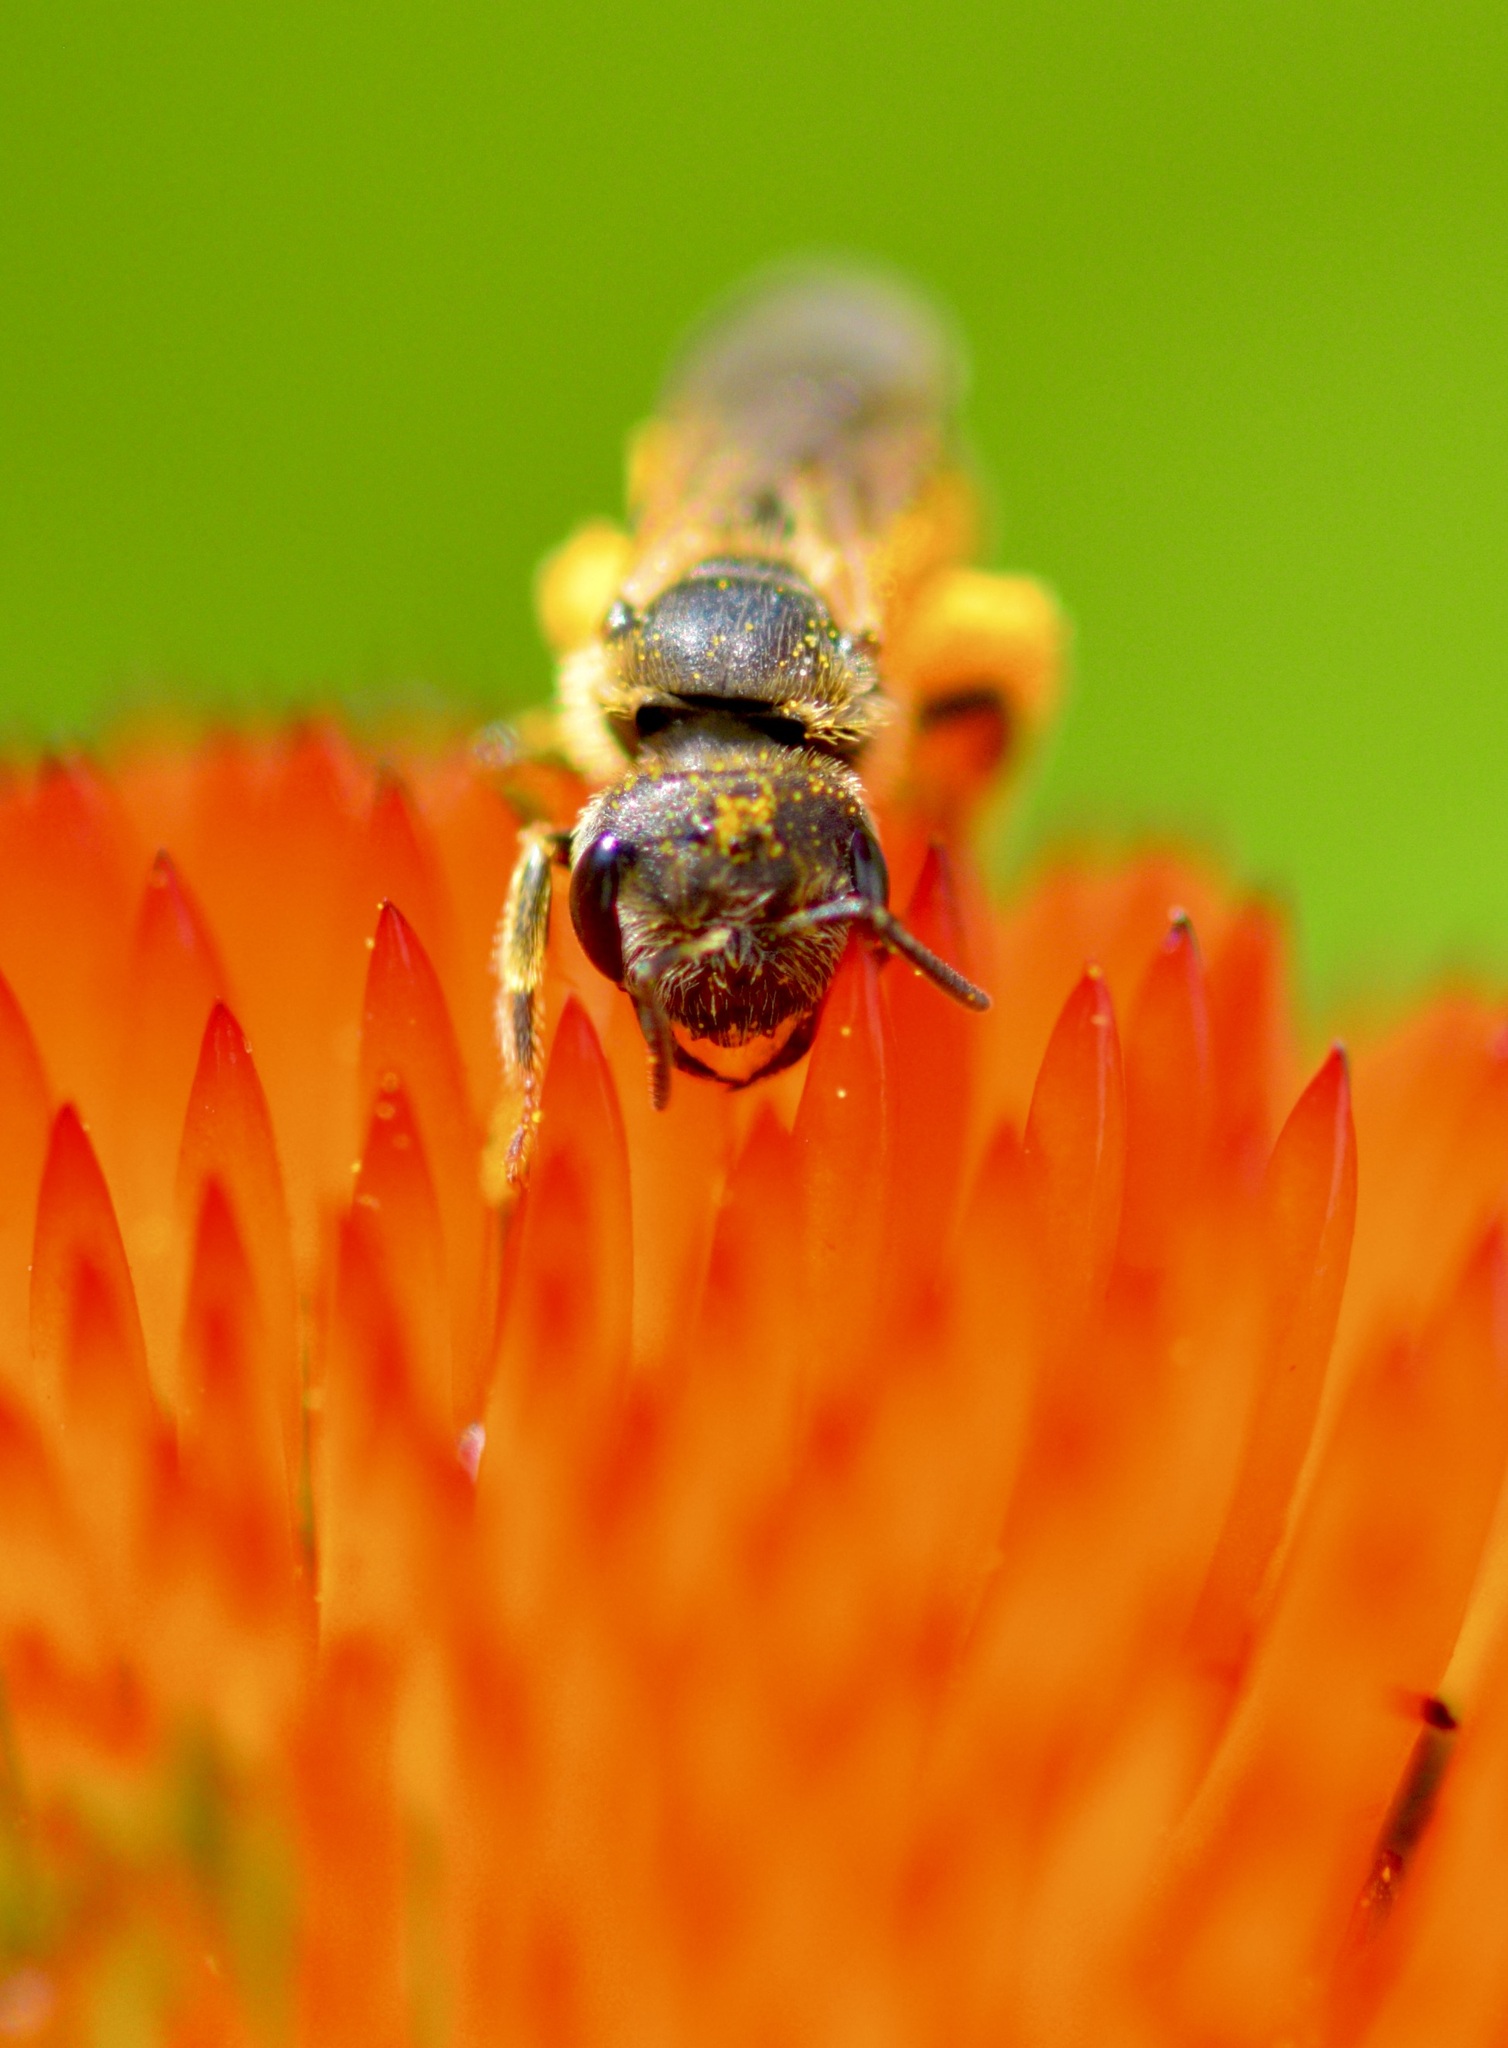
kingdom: Animalia
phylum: Arthropoda
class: Insecta
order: Hymenoptera
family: Halictidae
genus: Halictus
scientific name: Halictus ligatus
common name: Ligated furrow bee
